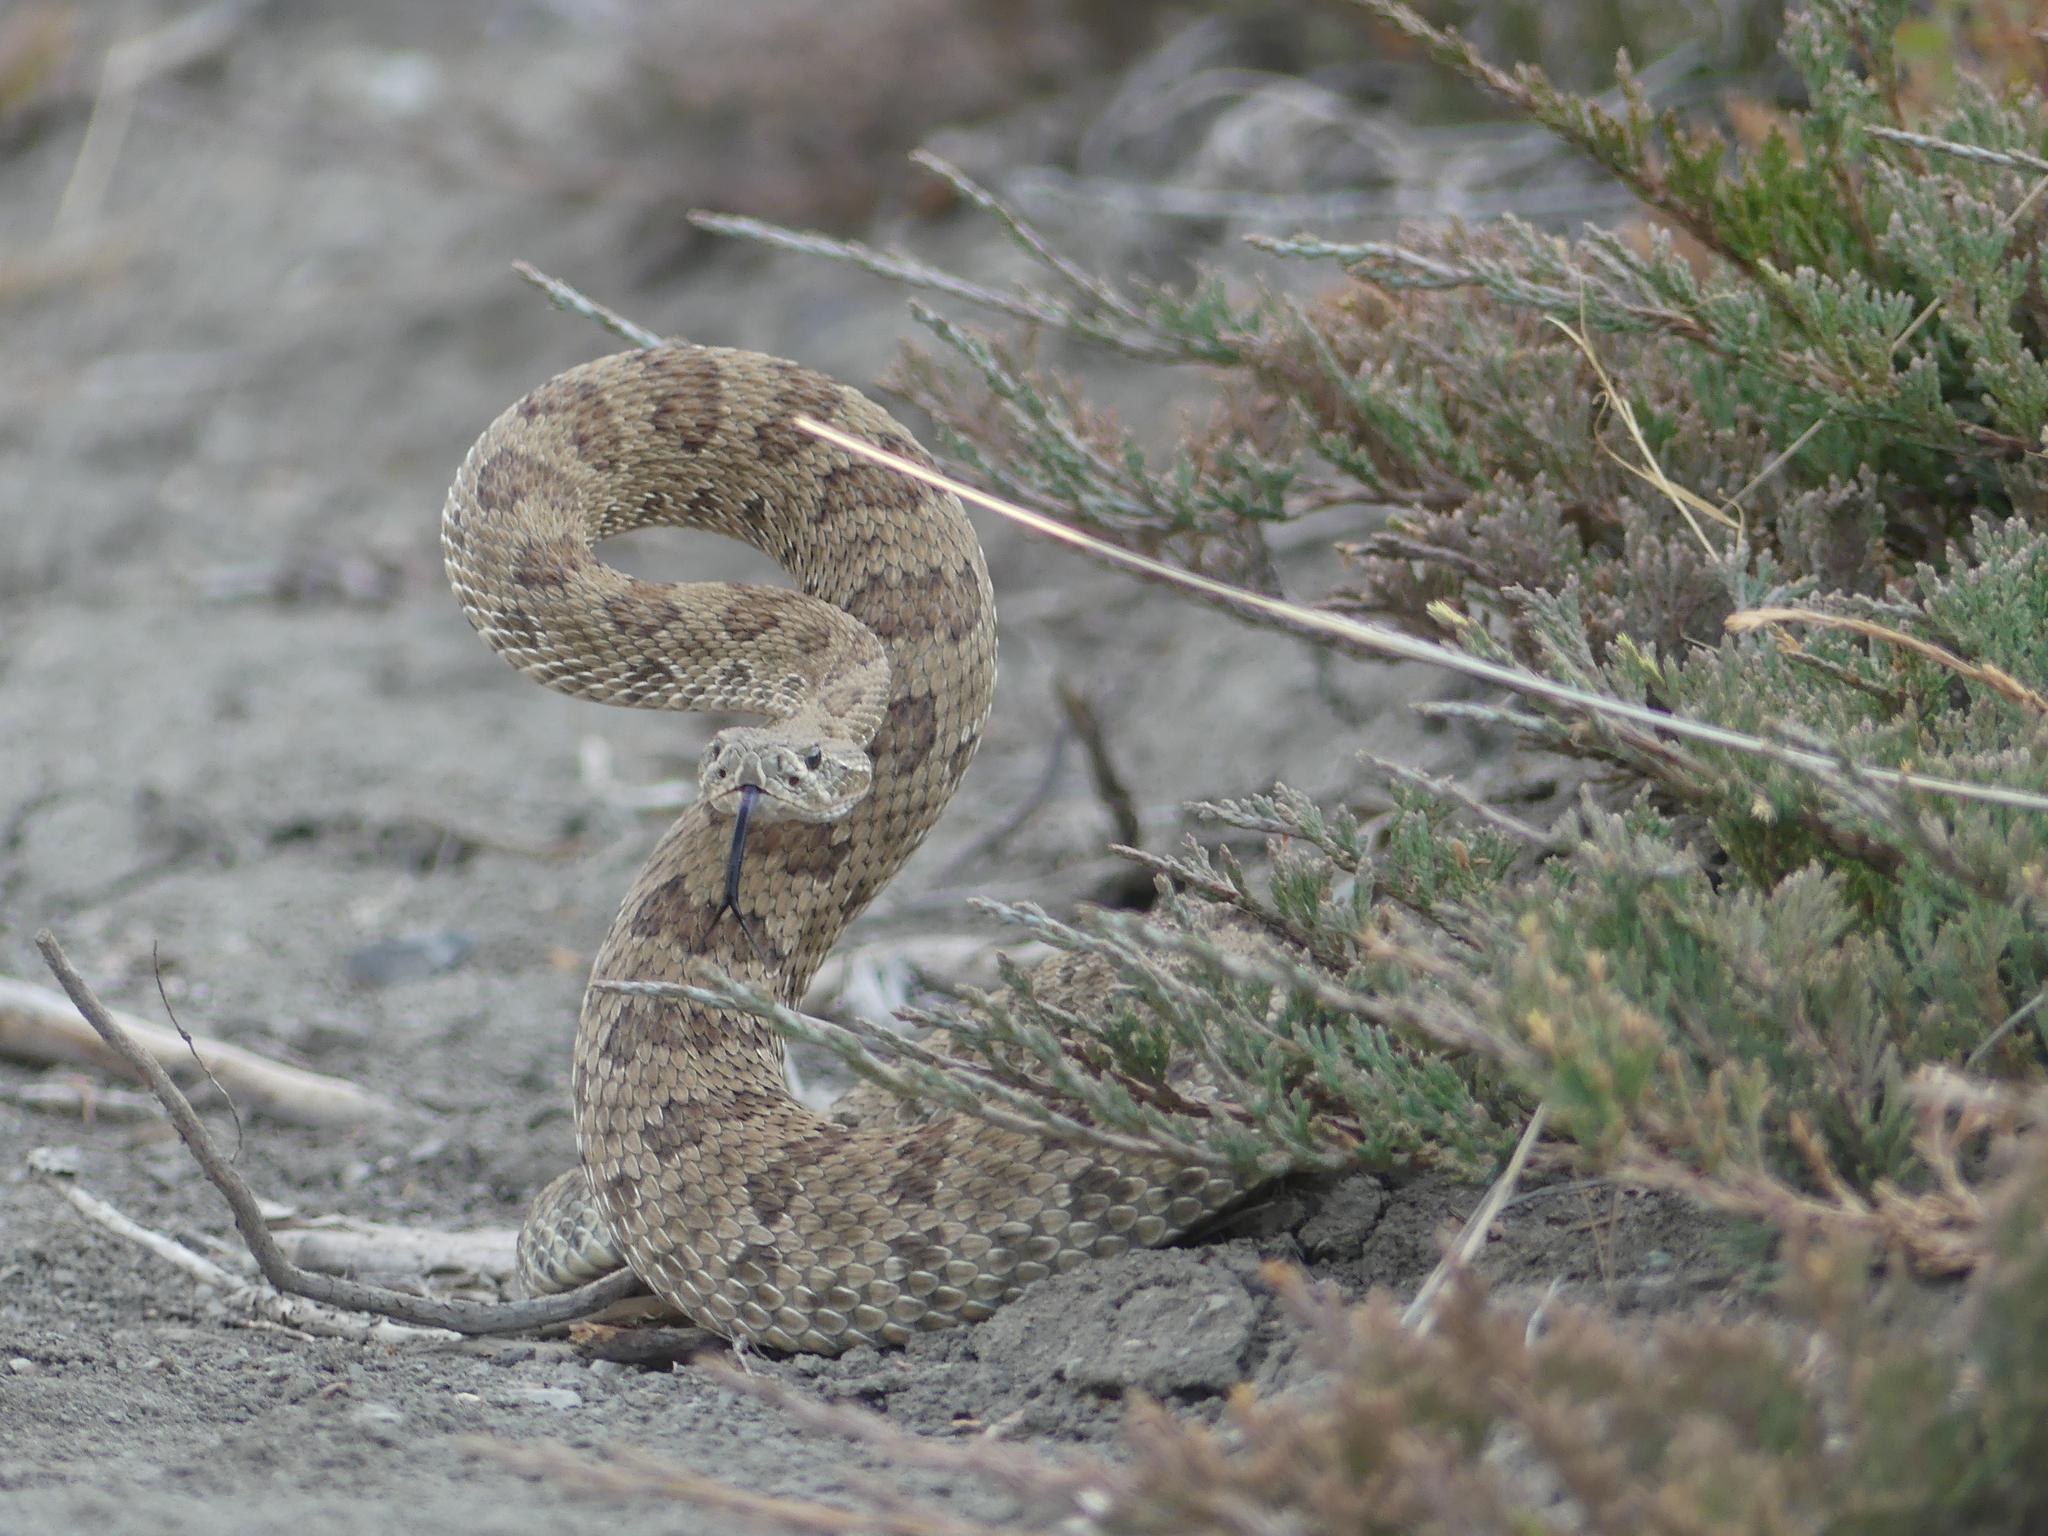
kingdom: Animalia
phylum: Chordata
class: Squamata
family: Viperidae
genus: Crotalus
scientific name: Crotalus viridis
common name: Prairie rattlesnake
